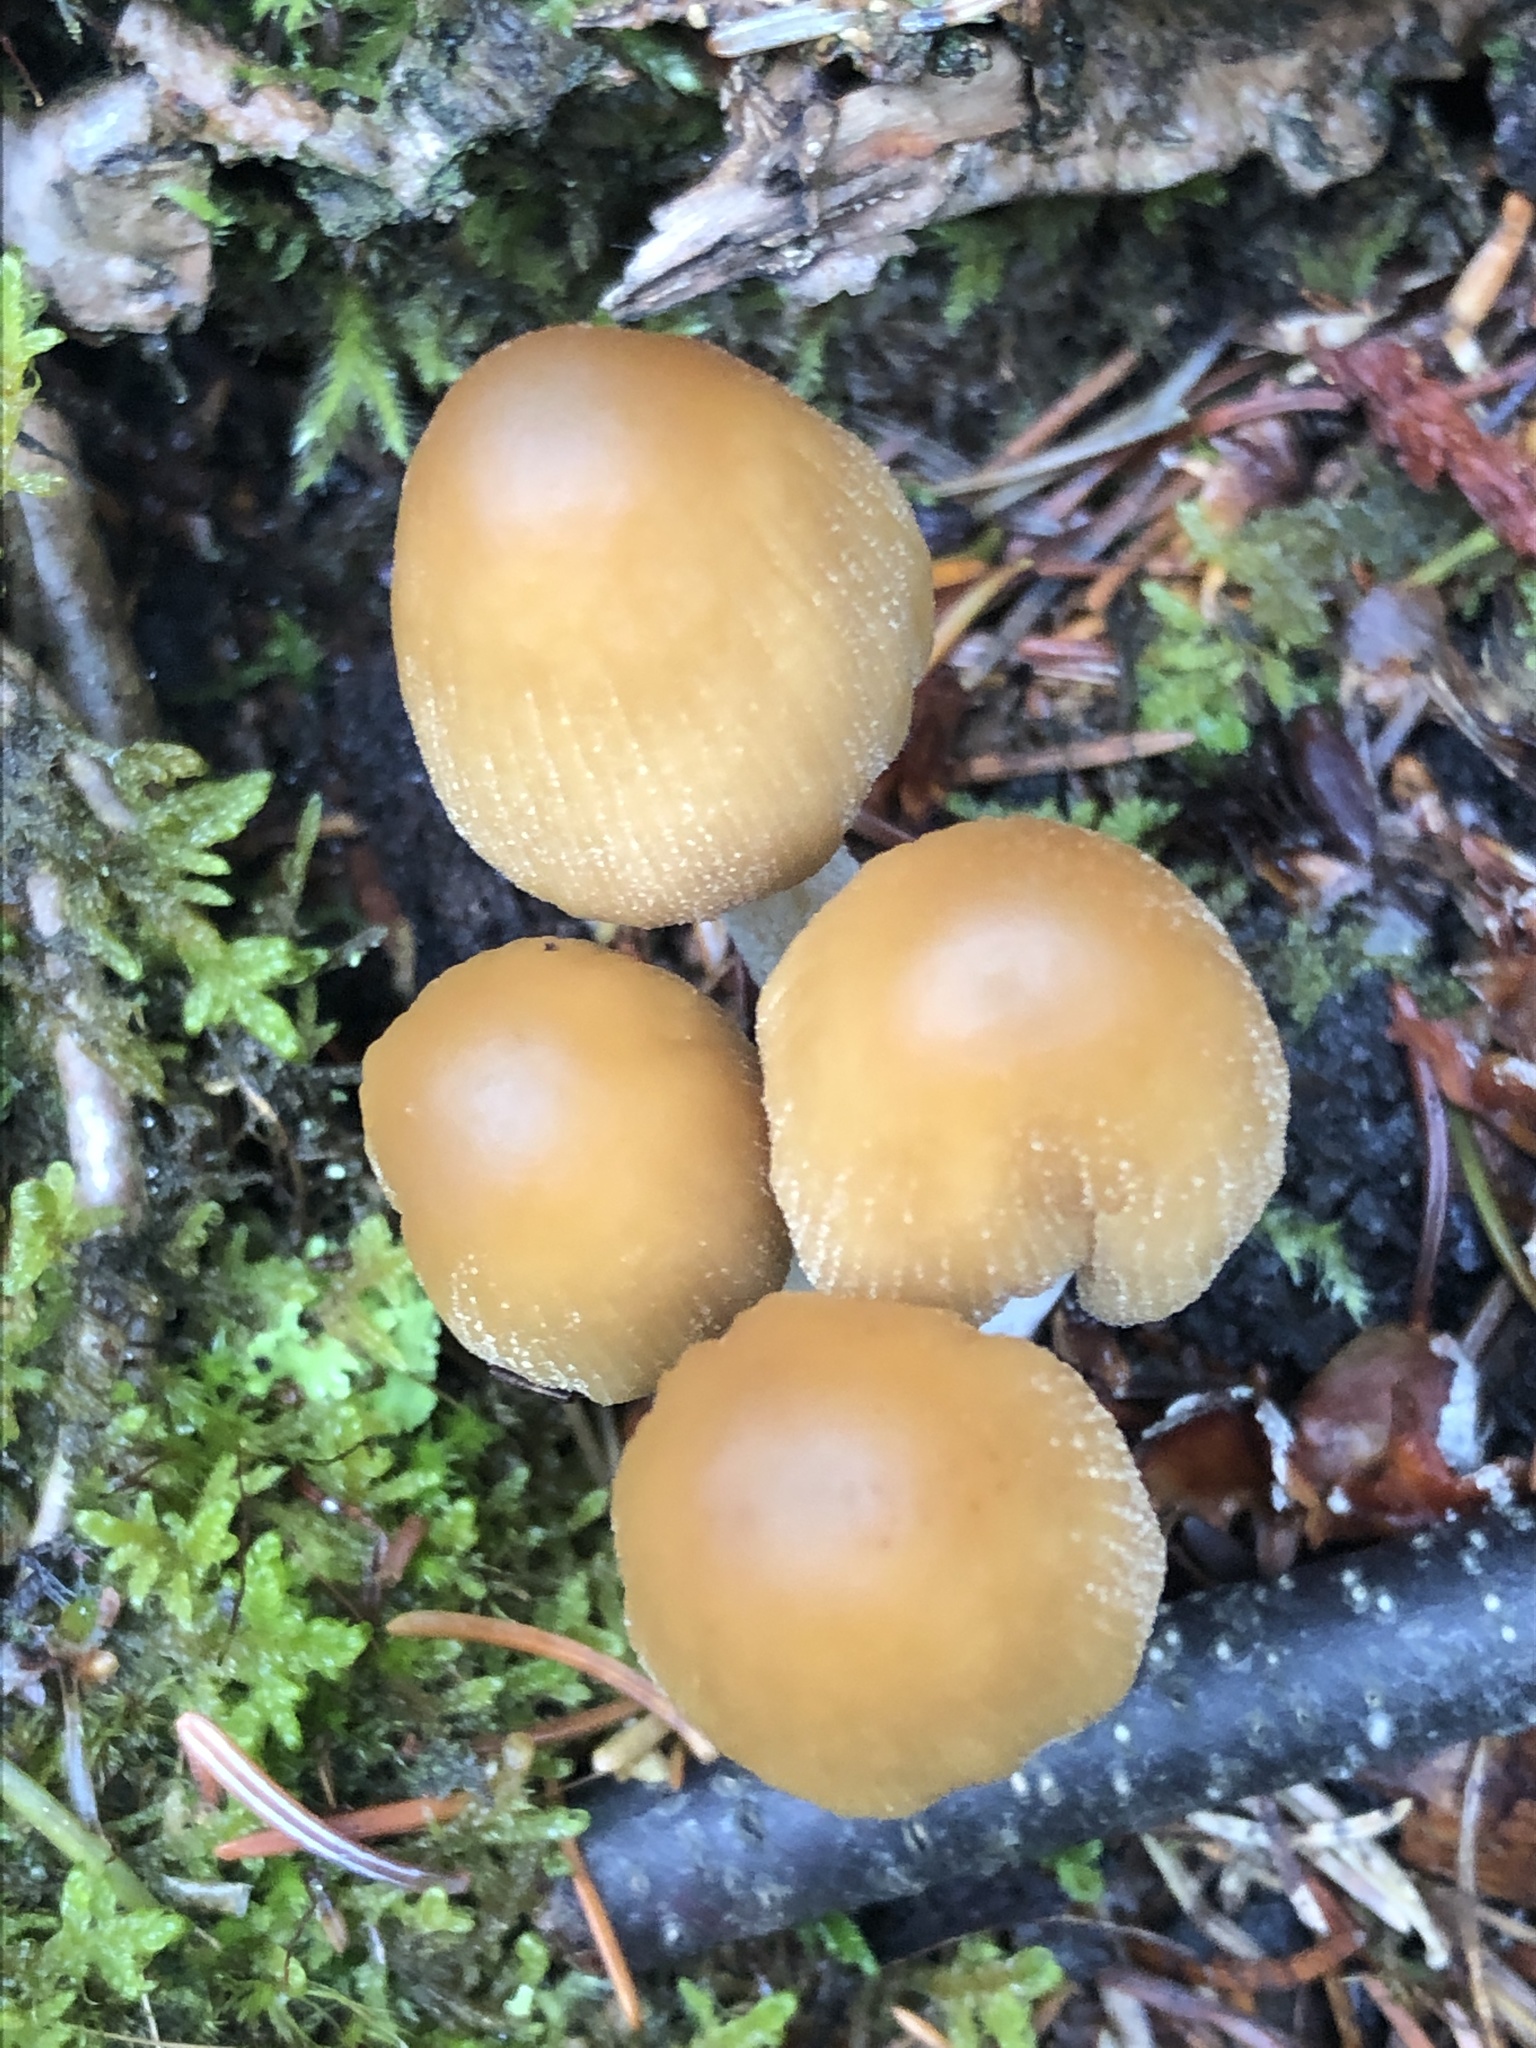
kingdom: Fungi
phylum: Basidiomycota
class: Agaricomycetes
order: Agaricales
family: Psathyrellaceae
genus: Coprinellus
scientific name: Coprinellus micaceus
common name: Glistening ink-cap
